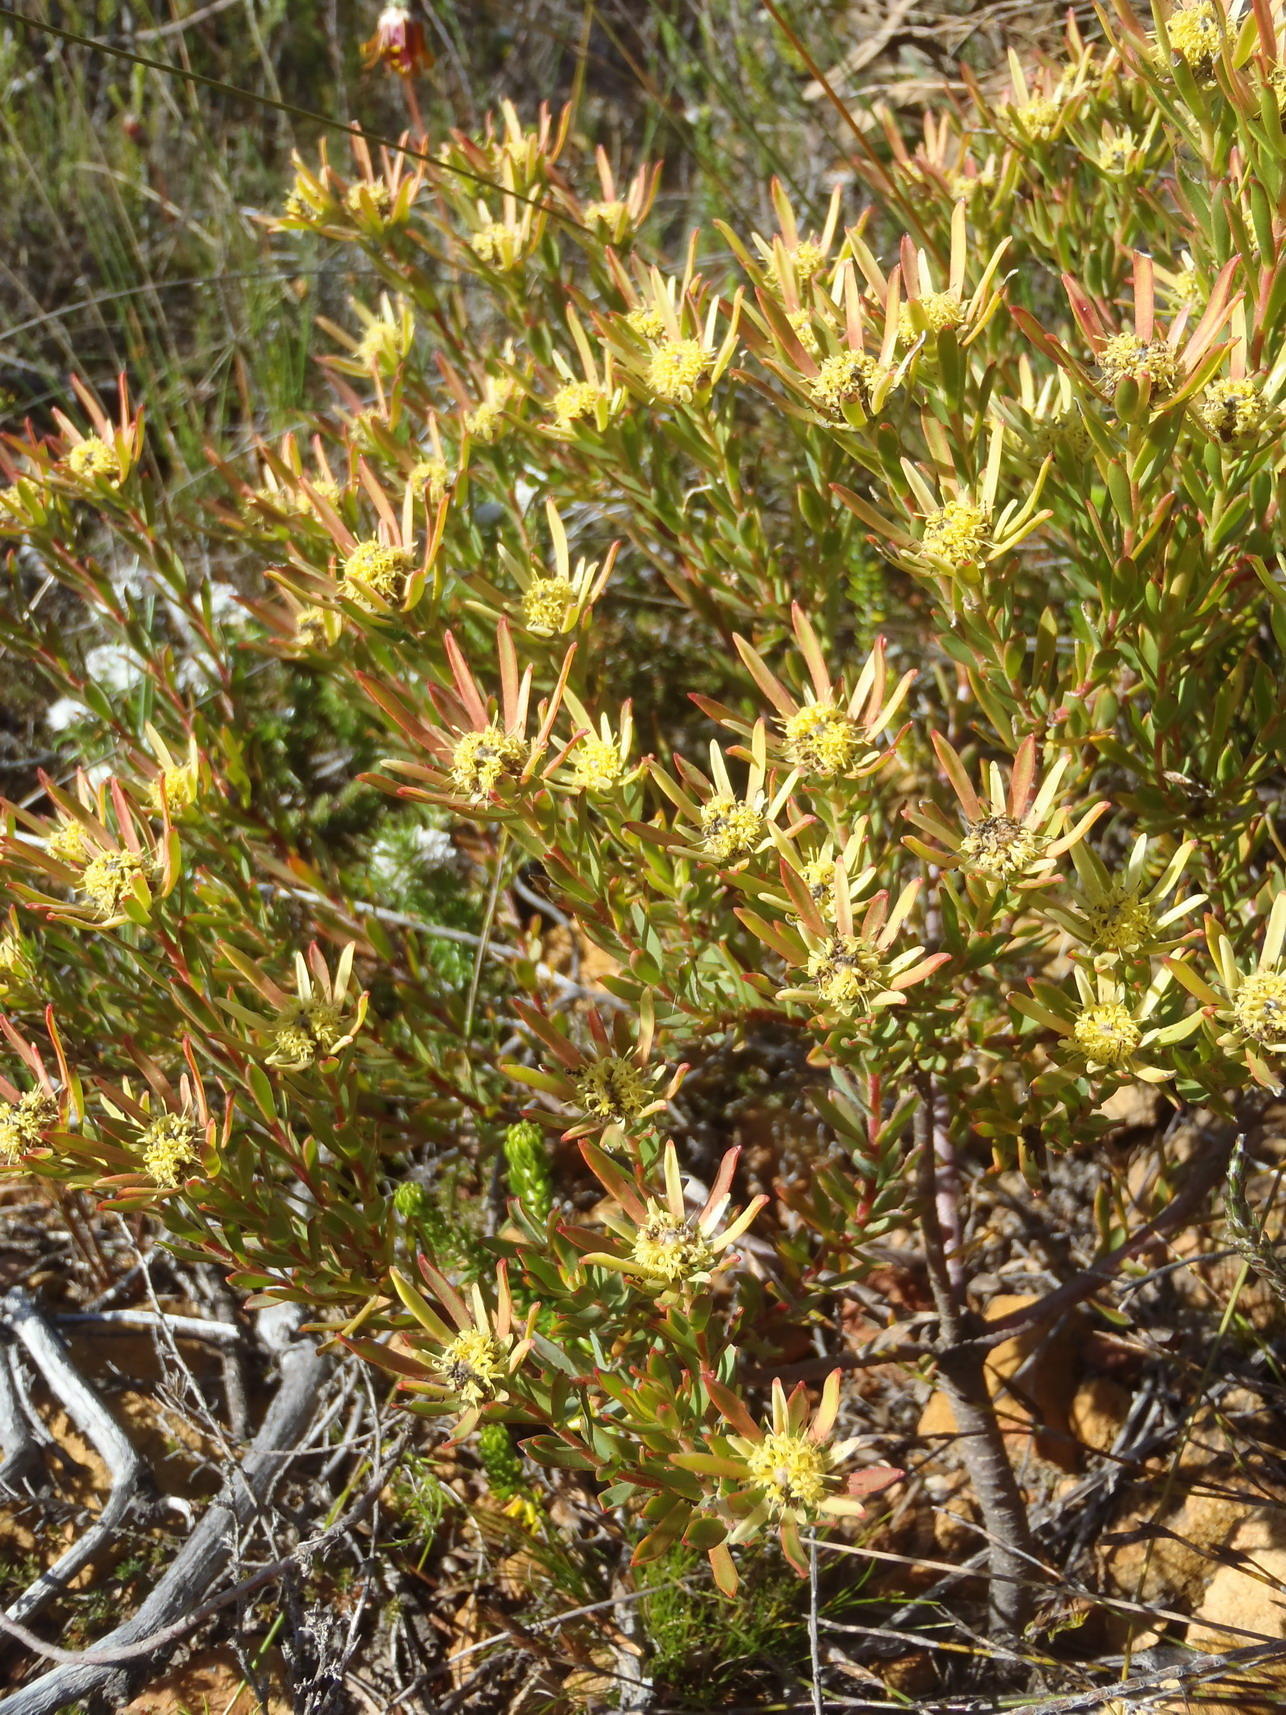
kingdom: Plantae
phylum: Tracheophyta
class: Magnoliopsida
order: Proteales
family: Proteaceae
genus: Leucadendron
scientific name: Leucadendron modestum
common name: Rough-leaf conebush
